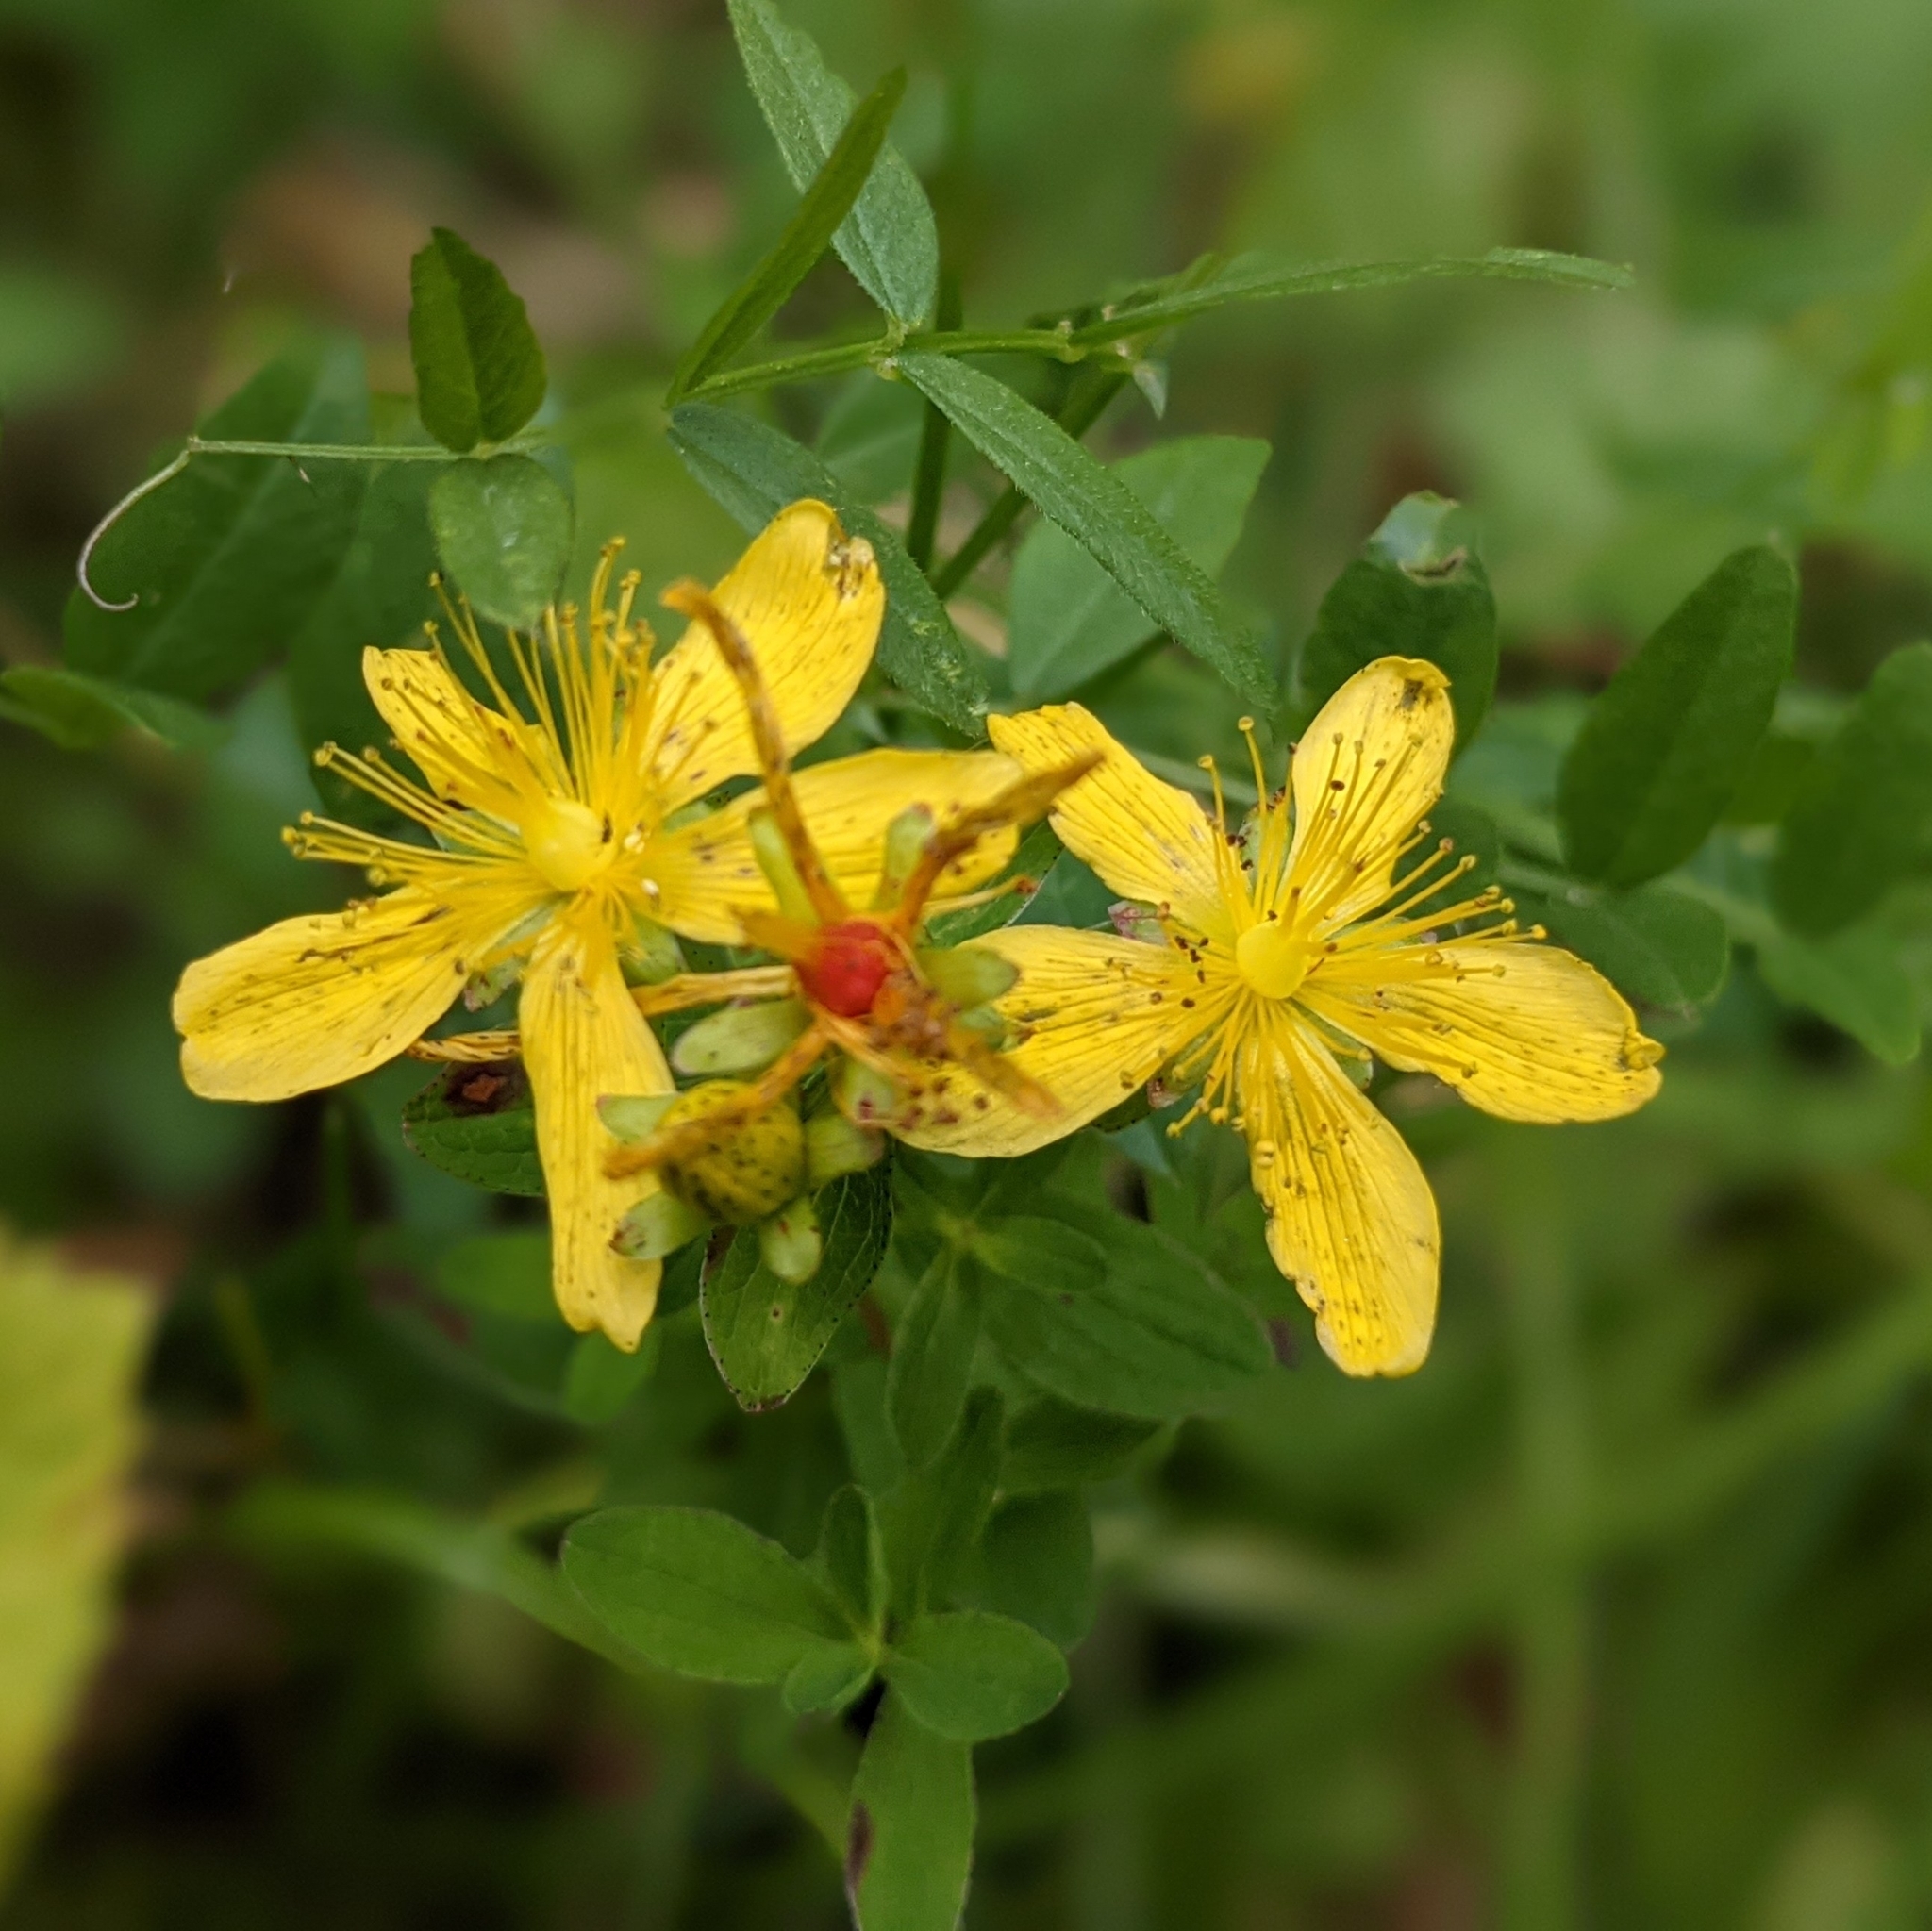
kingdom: Plantae
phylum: Tracheophyta
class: Magnoliopsida
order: Malpighiales
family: Hypericaceae
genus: Hypericum
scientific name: Hypericum maculatum
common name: Imperforate st. john's-wort
